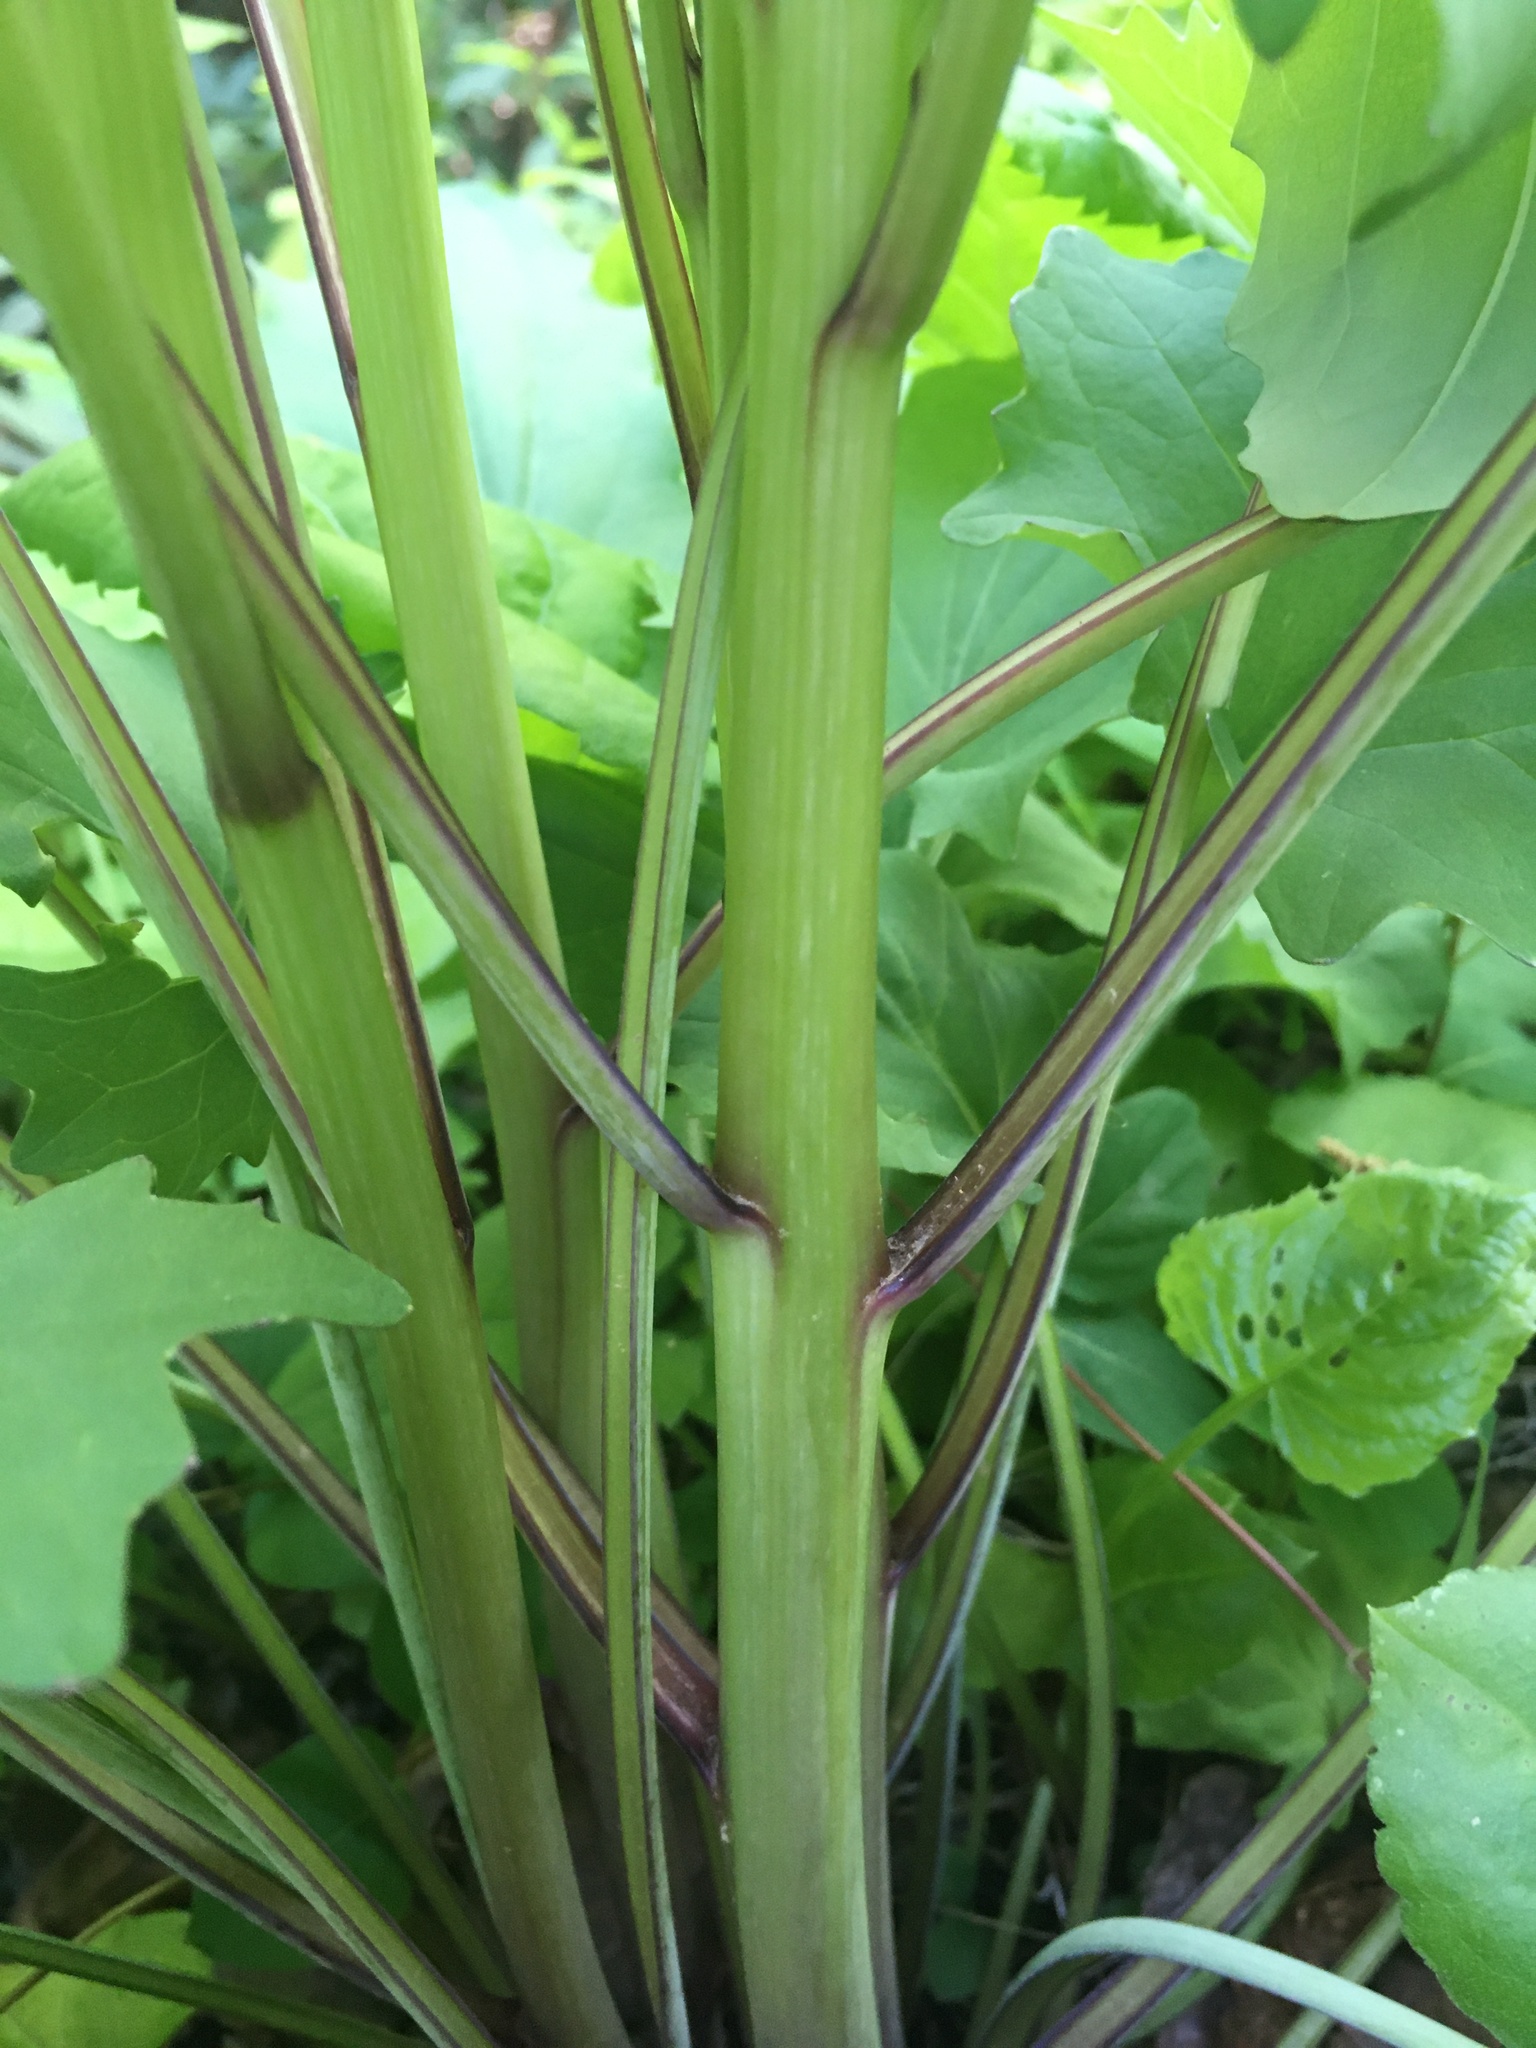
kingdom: Plantae
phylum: Tracheophyta
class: Magnoliopsida
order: Asterales
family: Asteraceae
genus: Arnoglossum
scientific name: Arnoglossum atriplicifolium
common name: Pale indian-plantain
